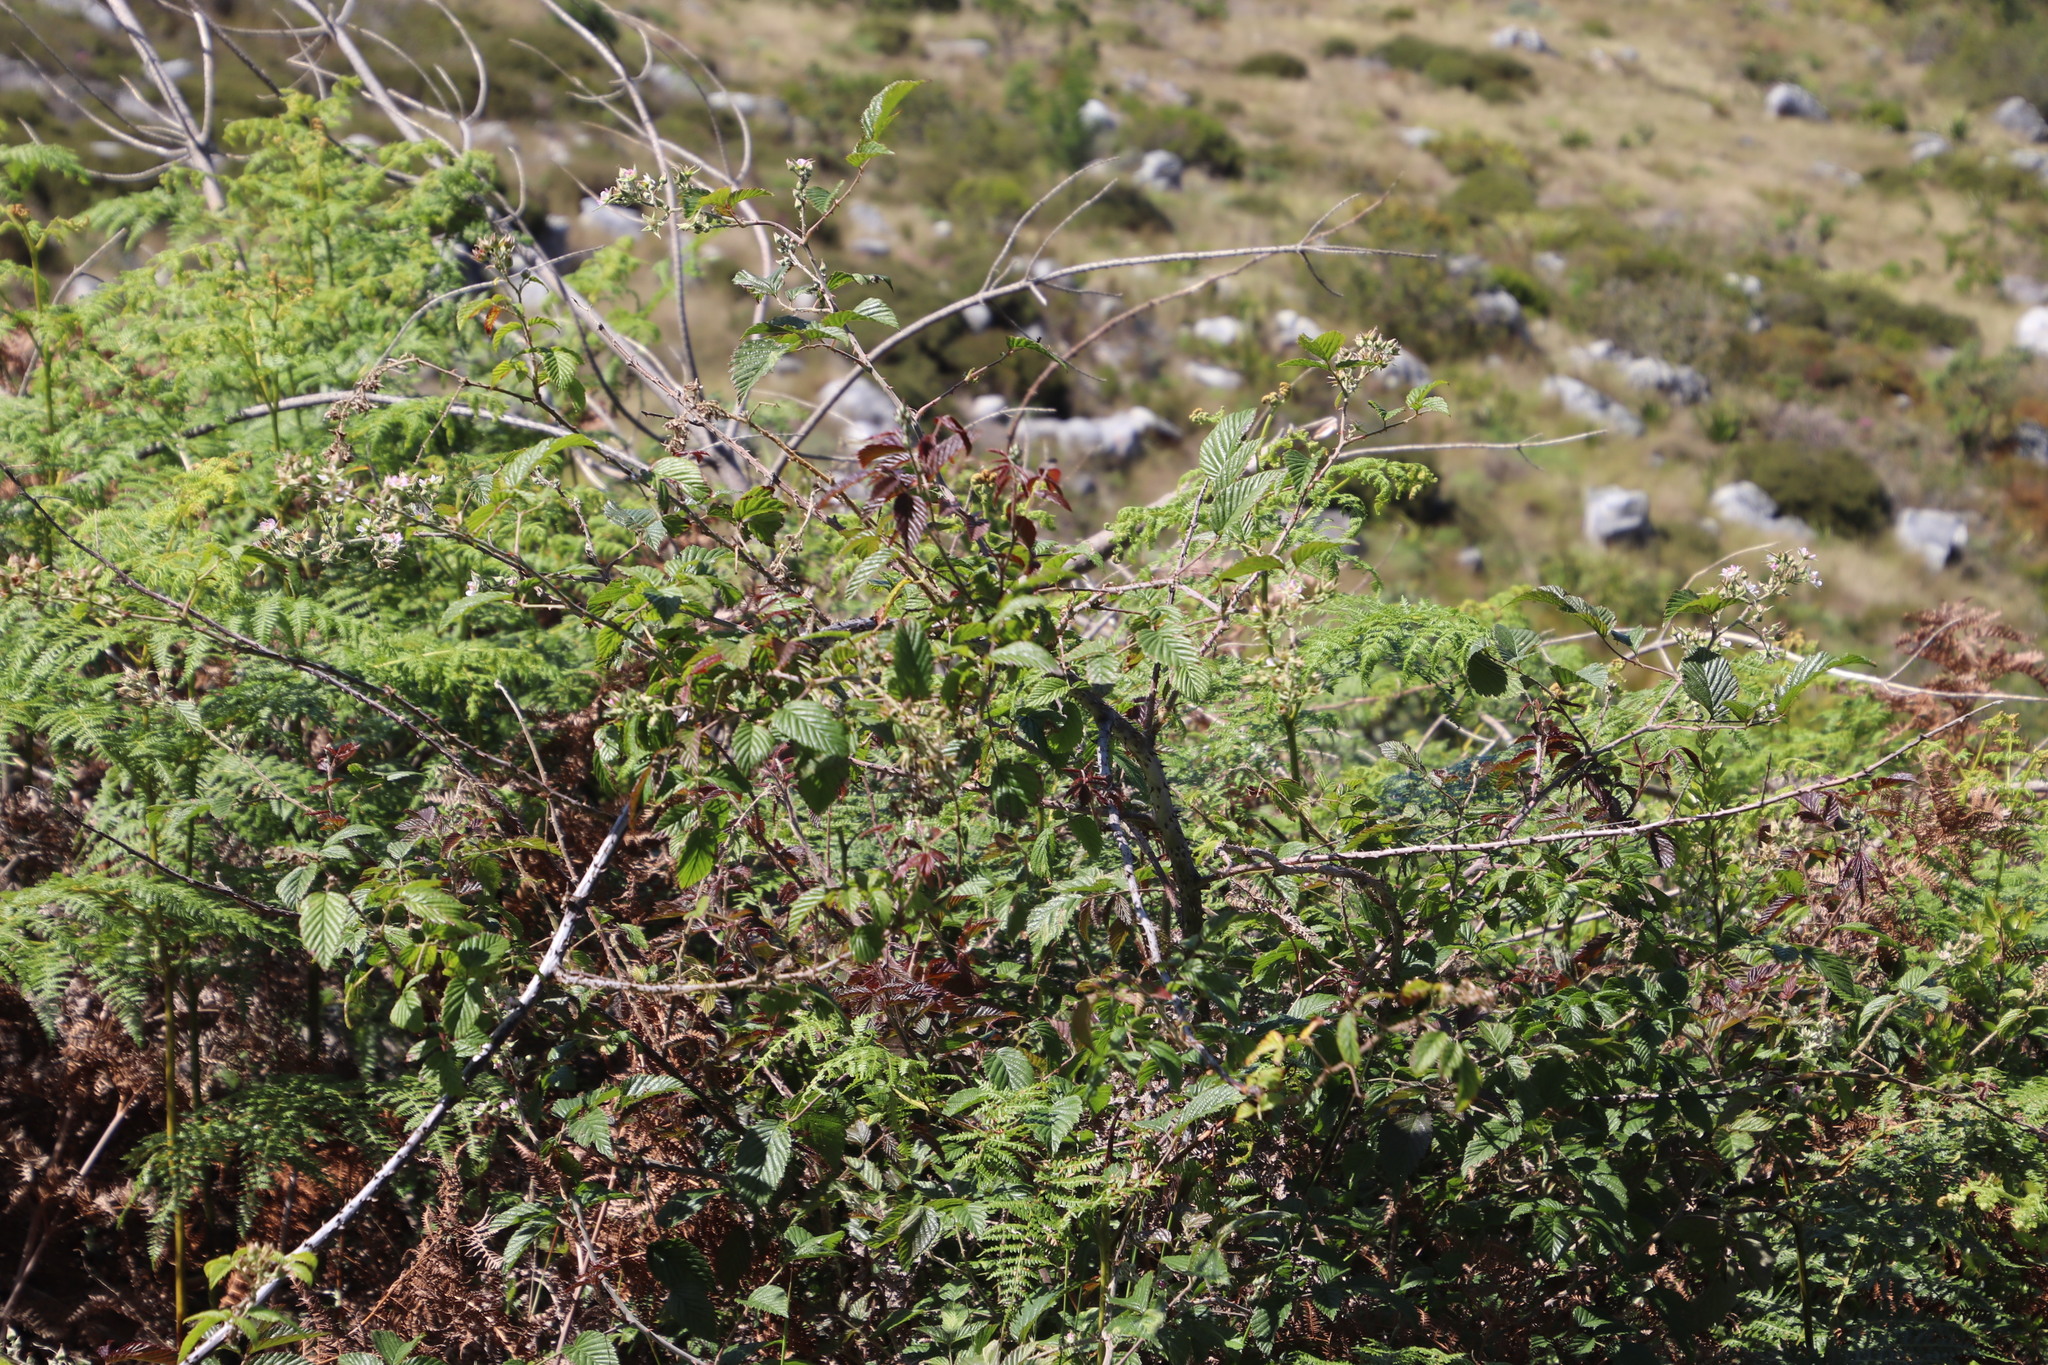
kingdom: Plantae
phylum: Tracheophyta
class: Magnoliopsida
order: Rosales
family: Rosaceae
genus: Rubus
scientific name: Rubus pinnatus
